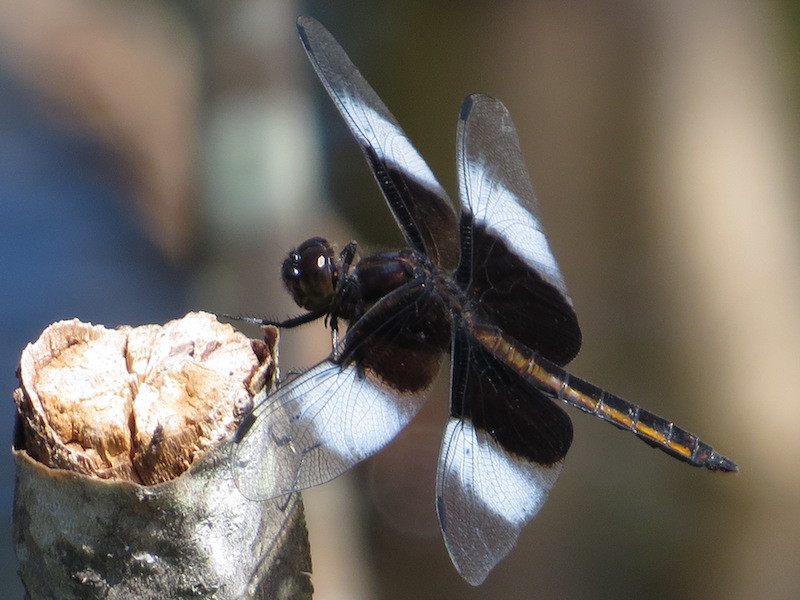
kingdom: Animalia
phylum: Arthropoda
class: Insecta
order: Odonata
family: Libellulidae
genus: Libellula
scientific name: Libellula luctuosa
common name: Widow skimmer
